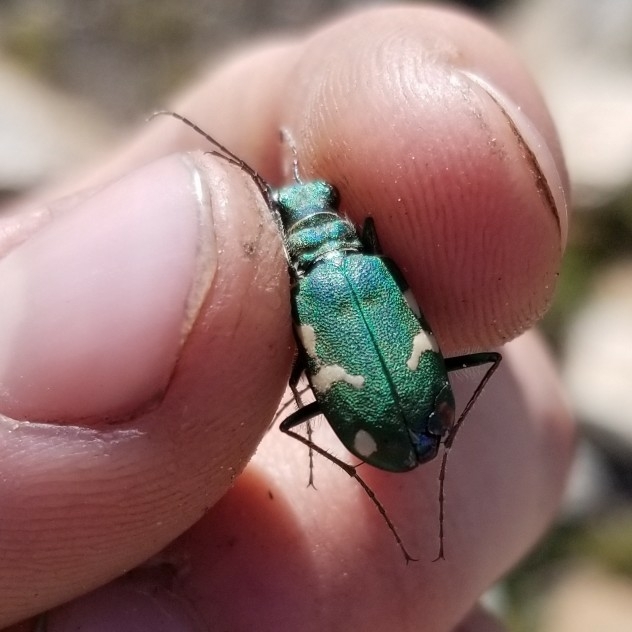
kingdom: Animalia
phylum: Arthropoda
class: Insecta
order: Coleoptera
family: Carabidae
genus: Cicindela
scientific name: Cicindela longilabris
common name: Boreal long-lipped tiger beetle
